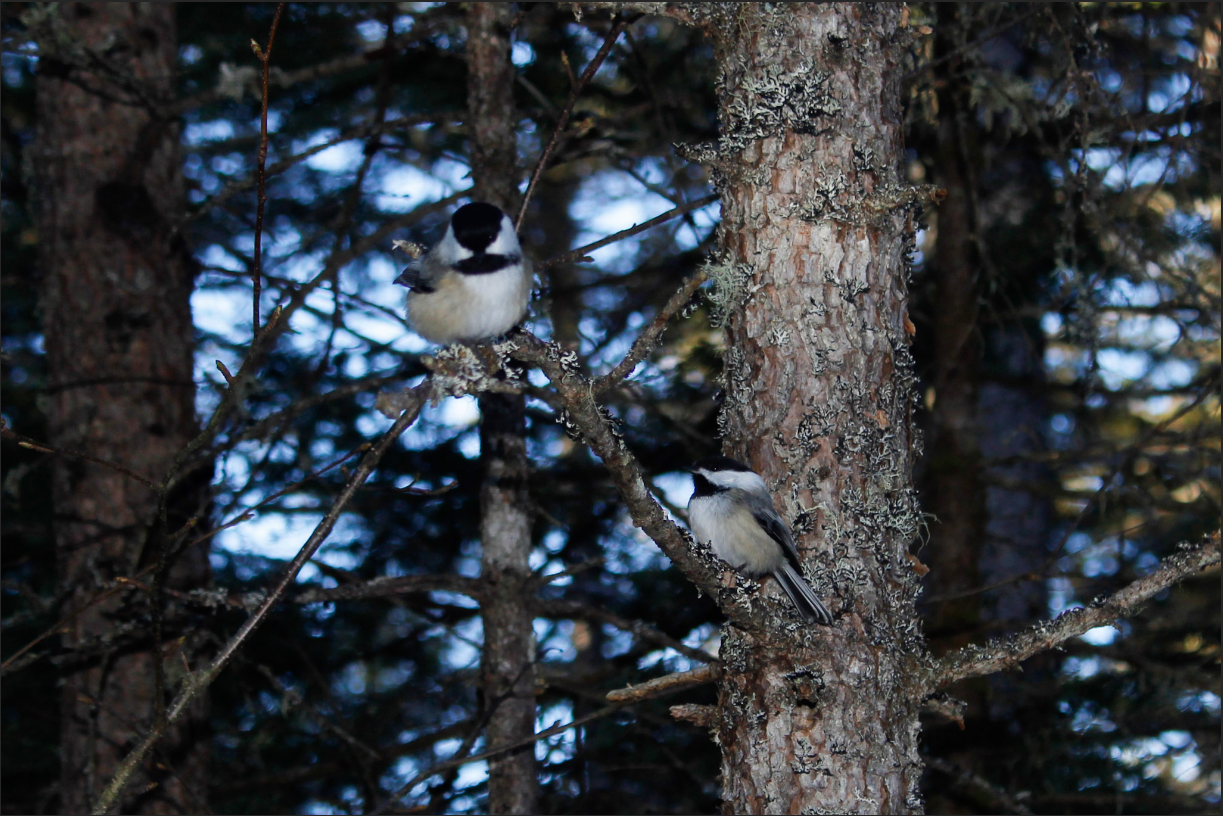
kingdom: Animalia
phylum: Chordata
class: Aves
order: Passeriformes
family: Paridae
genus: Poecile
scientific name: Poecile atricapillus
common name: Black-capped chickadee
